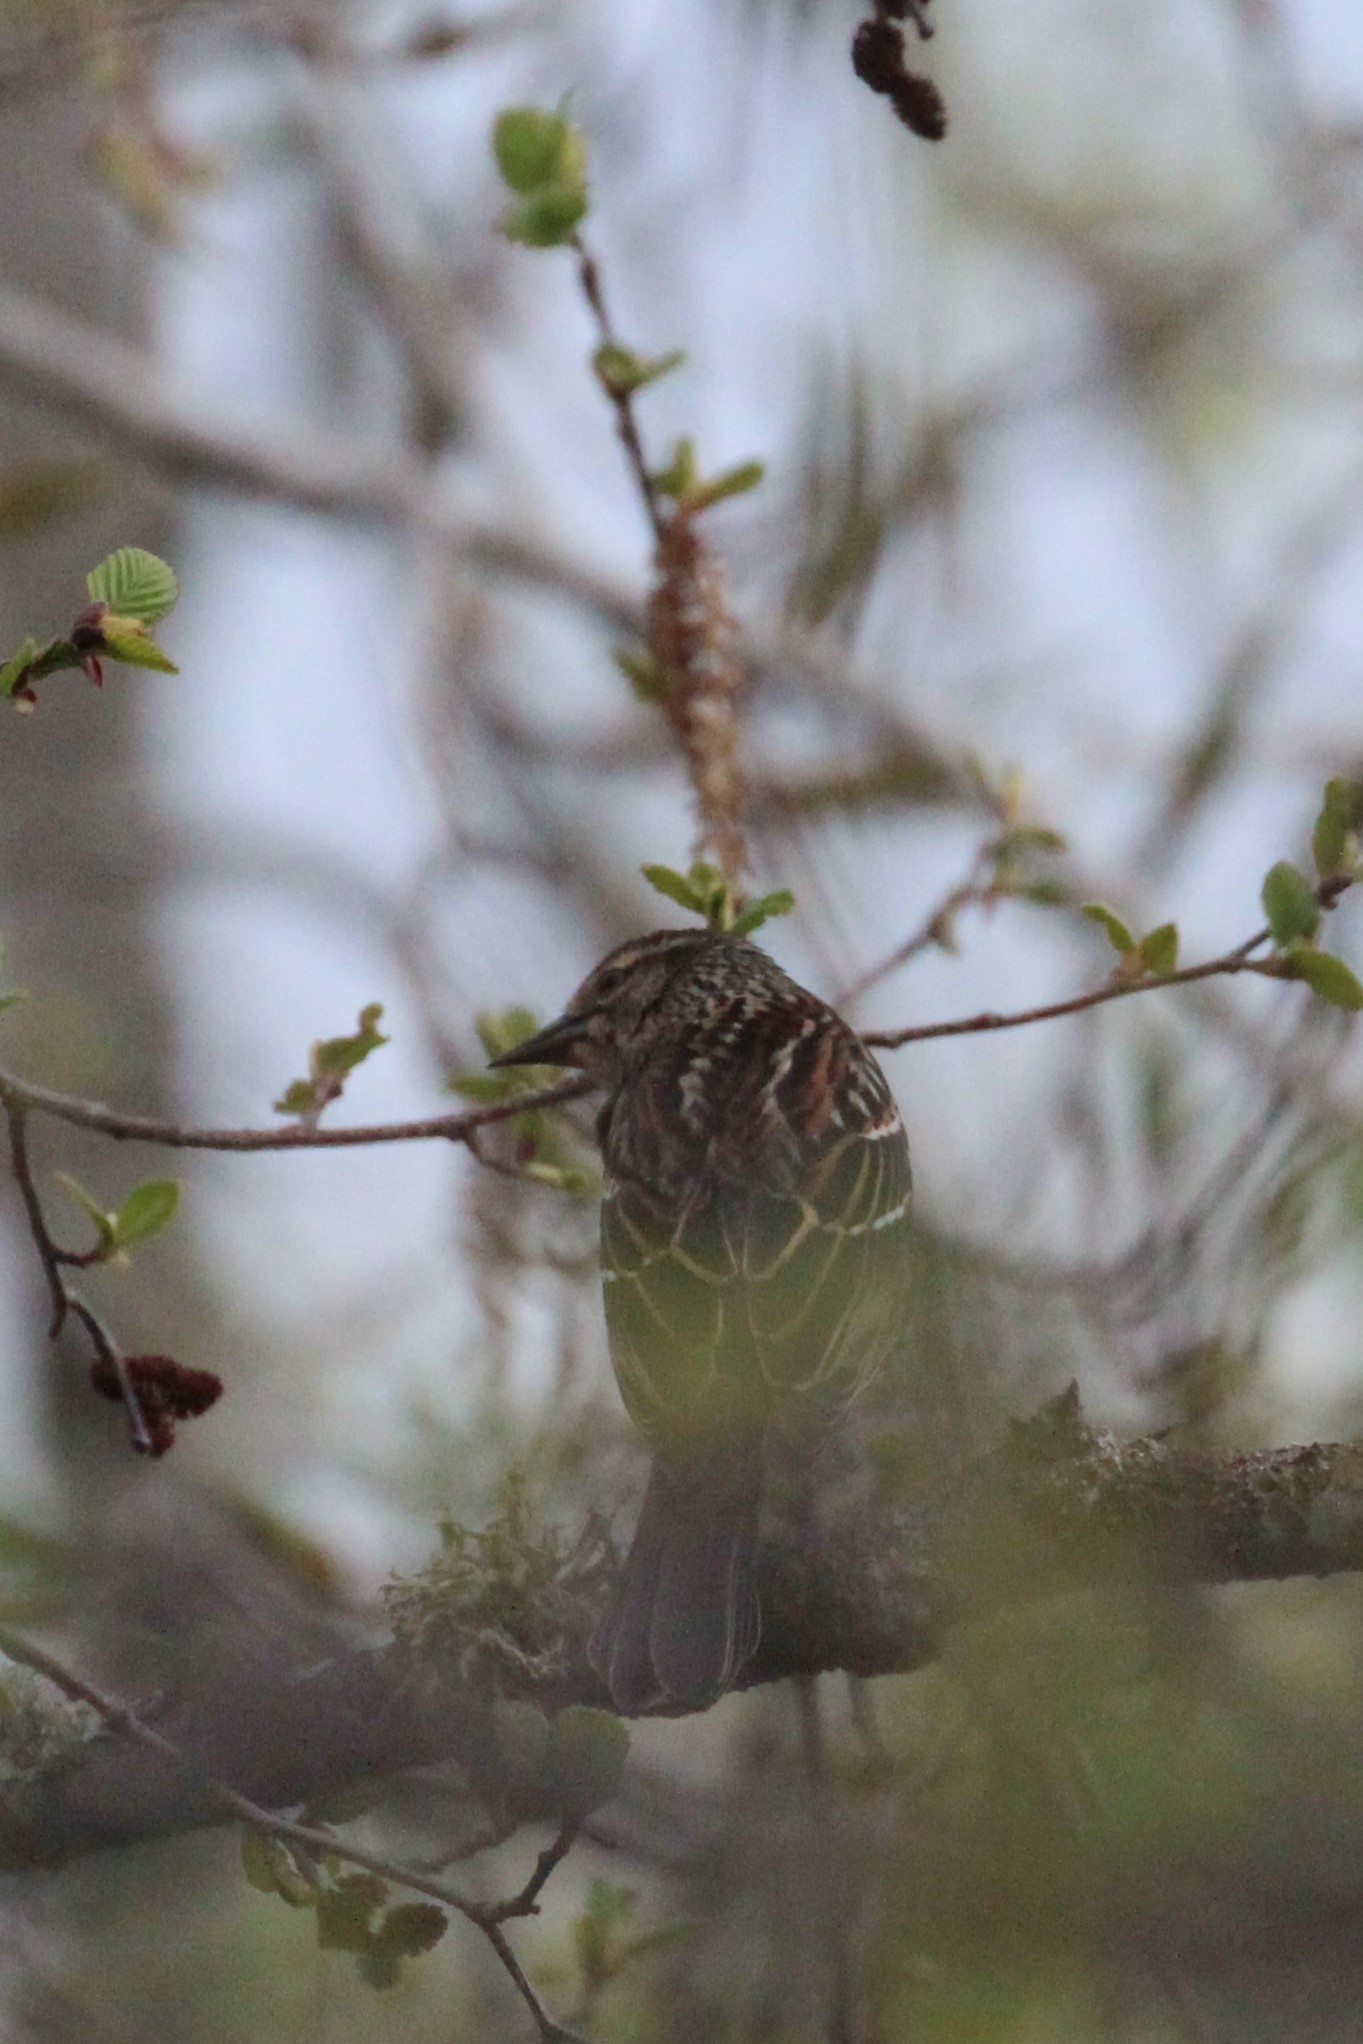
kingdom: Animalia
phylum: Chordata
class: Aves
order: Passeriformes
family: Icteridae
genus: Agelaius
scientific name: Agelaius phoeniceus
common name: Red-winged blackbird
